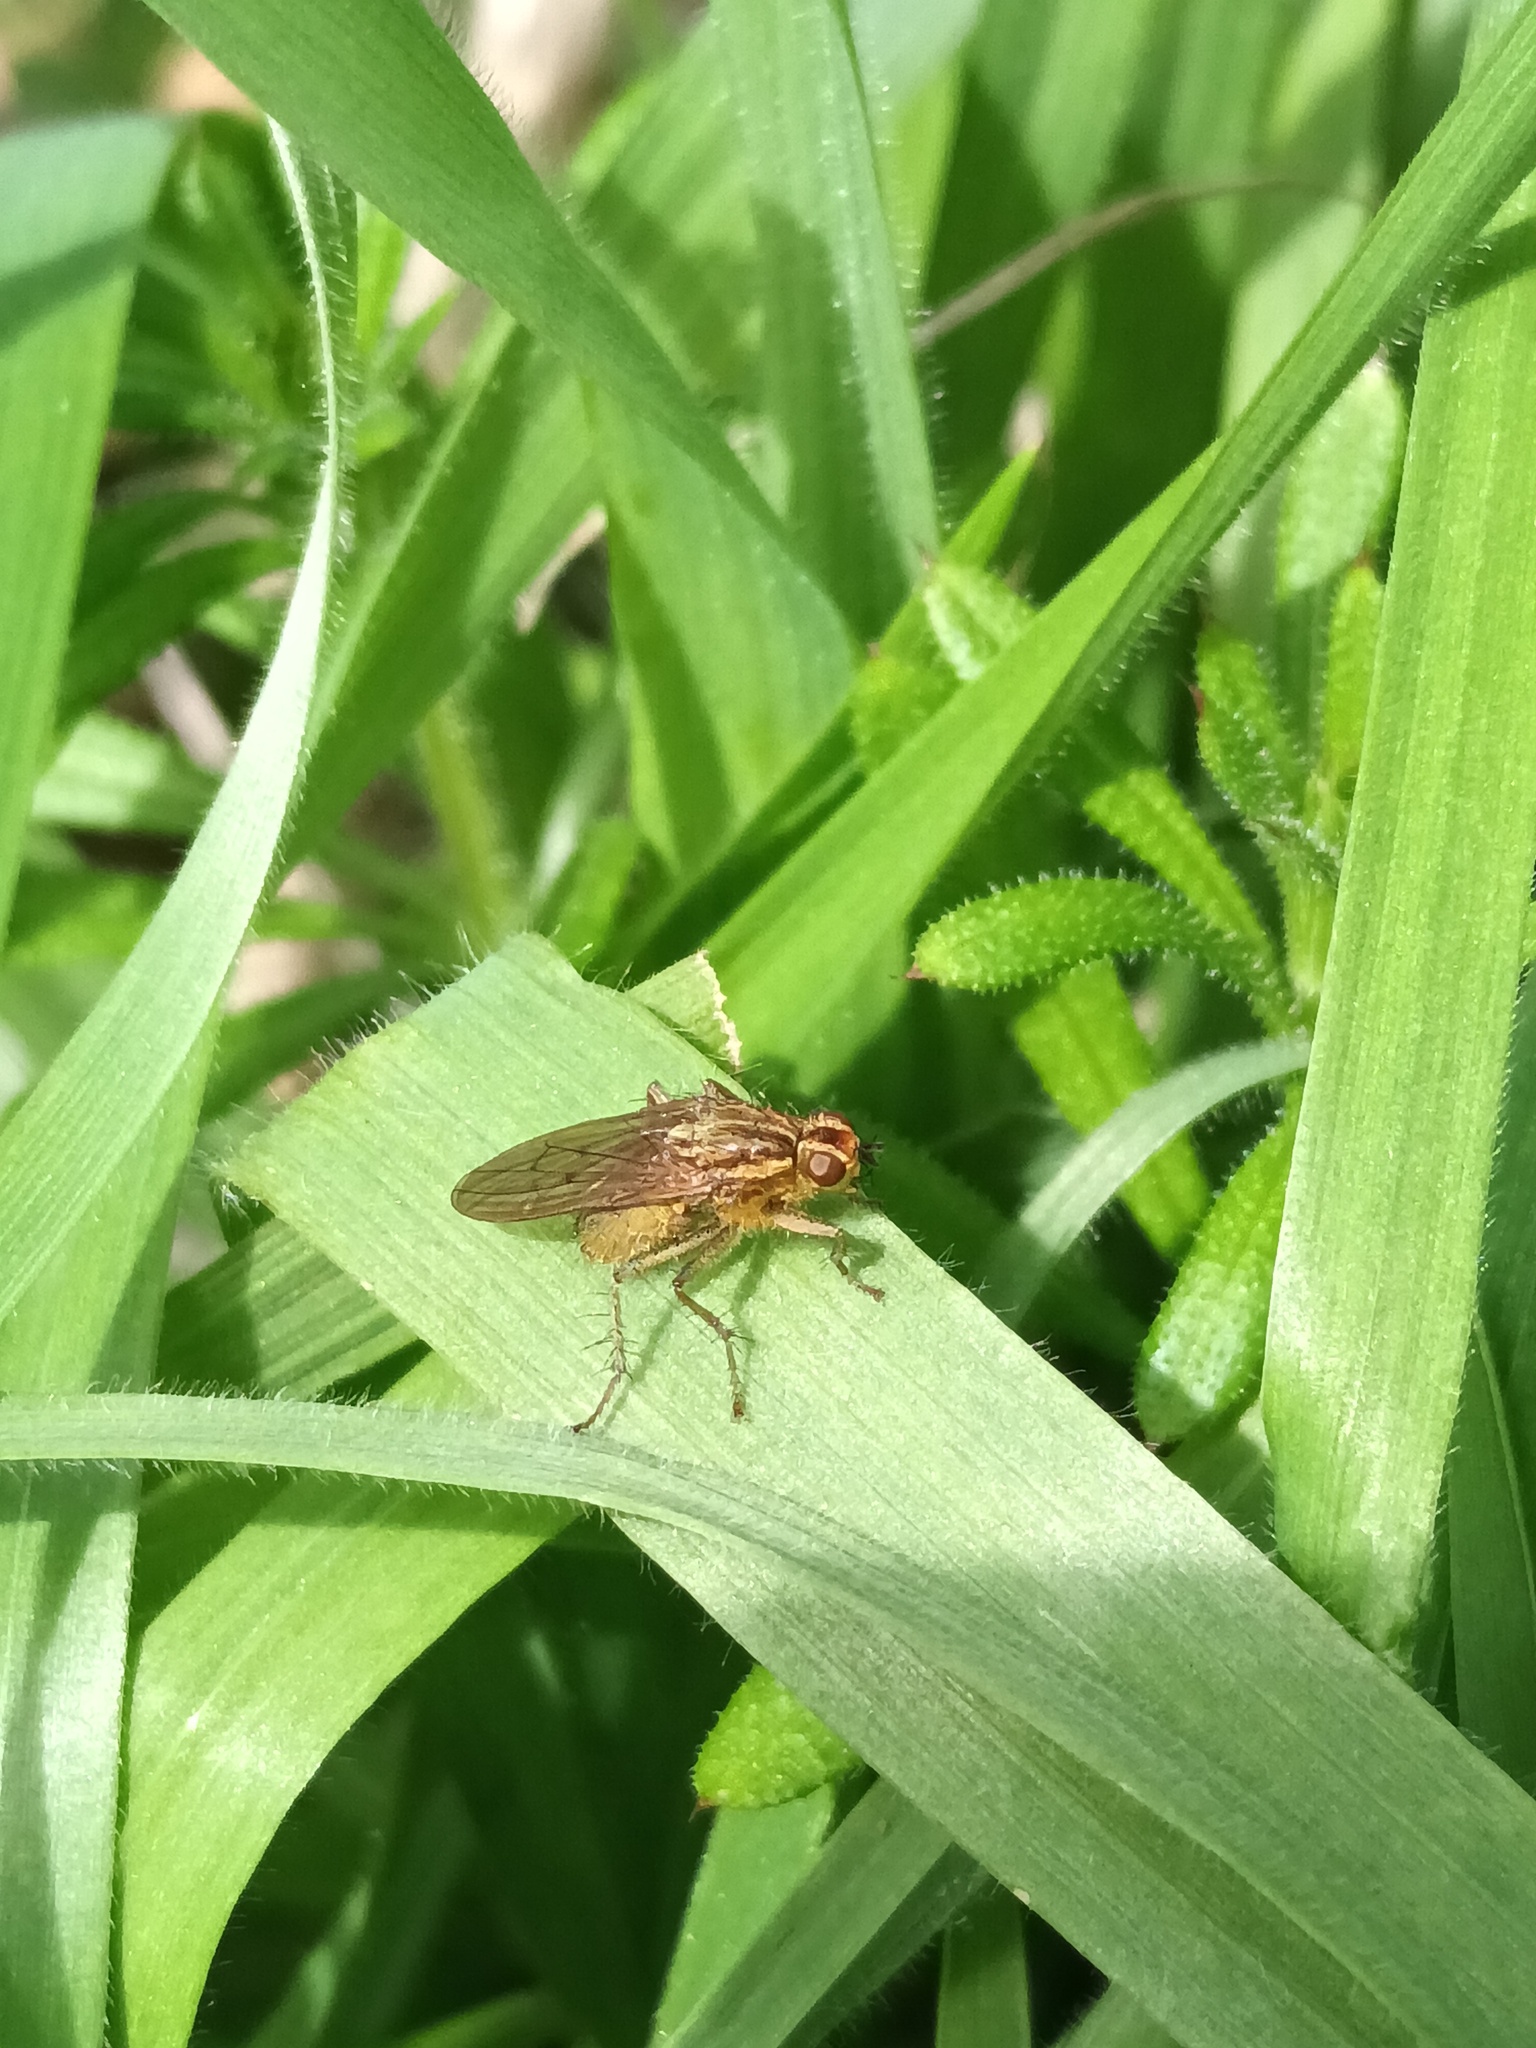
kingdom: Animalia
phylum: Arthropoda
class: Insecta
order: Diptera
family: Scathophagidae
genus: Scathophaga
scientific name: Scathophaga stercoraria
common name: Yellow dung fly
